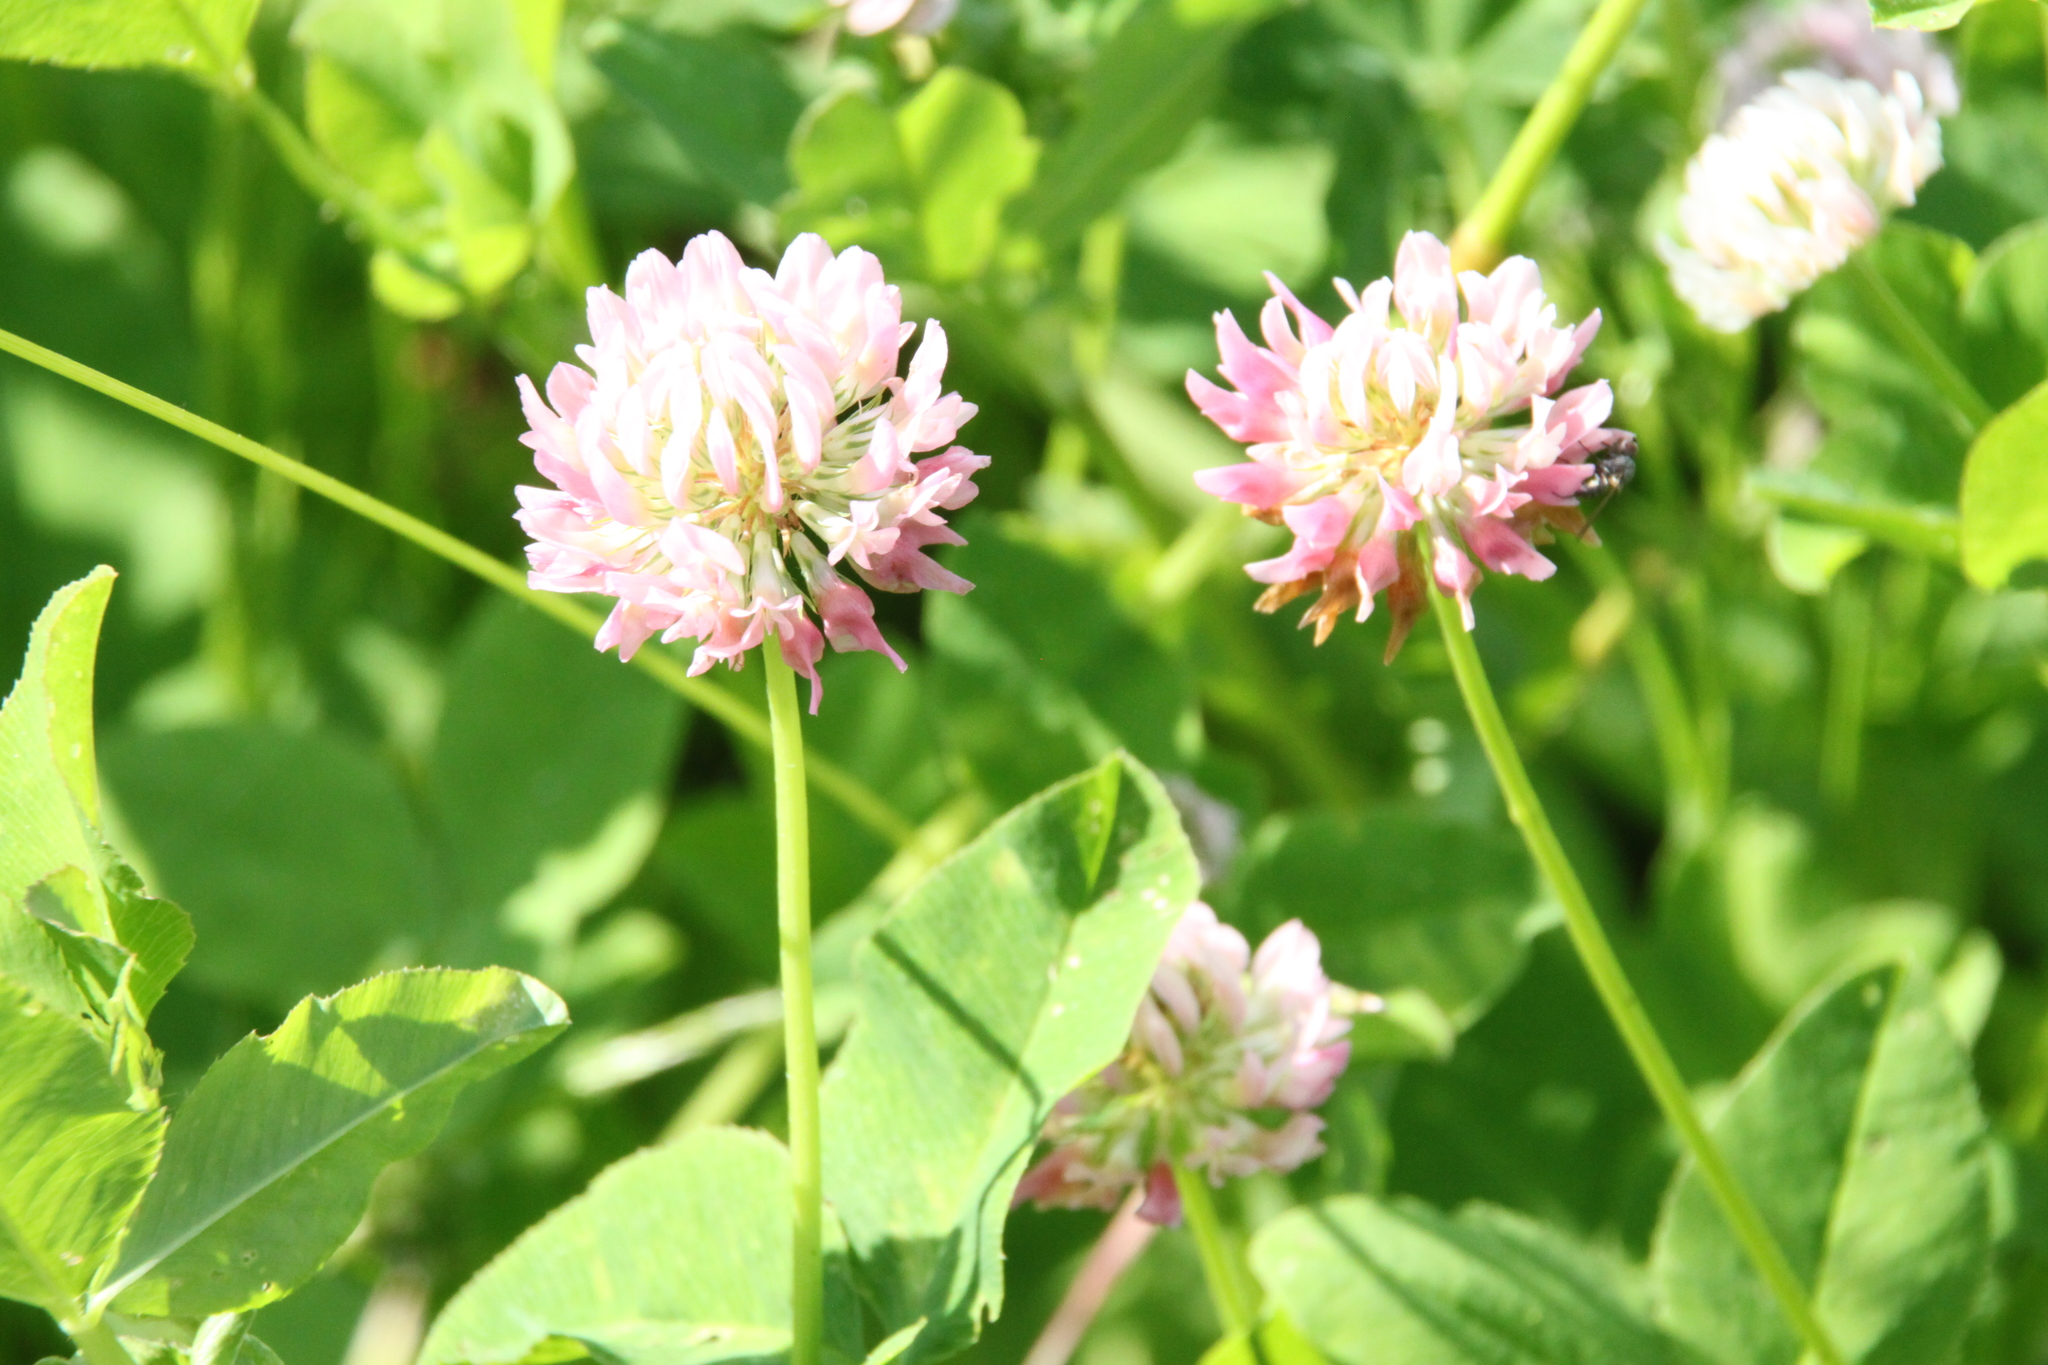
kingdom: Plantae
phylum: Tracheophyta
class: Magnoliopsida
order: Fabales
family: Fabaceae
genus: Trifolium
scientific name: Trifolium hybridum
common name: Alsike clover
